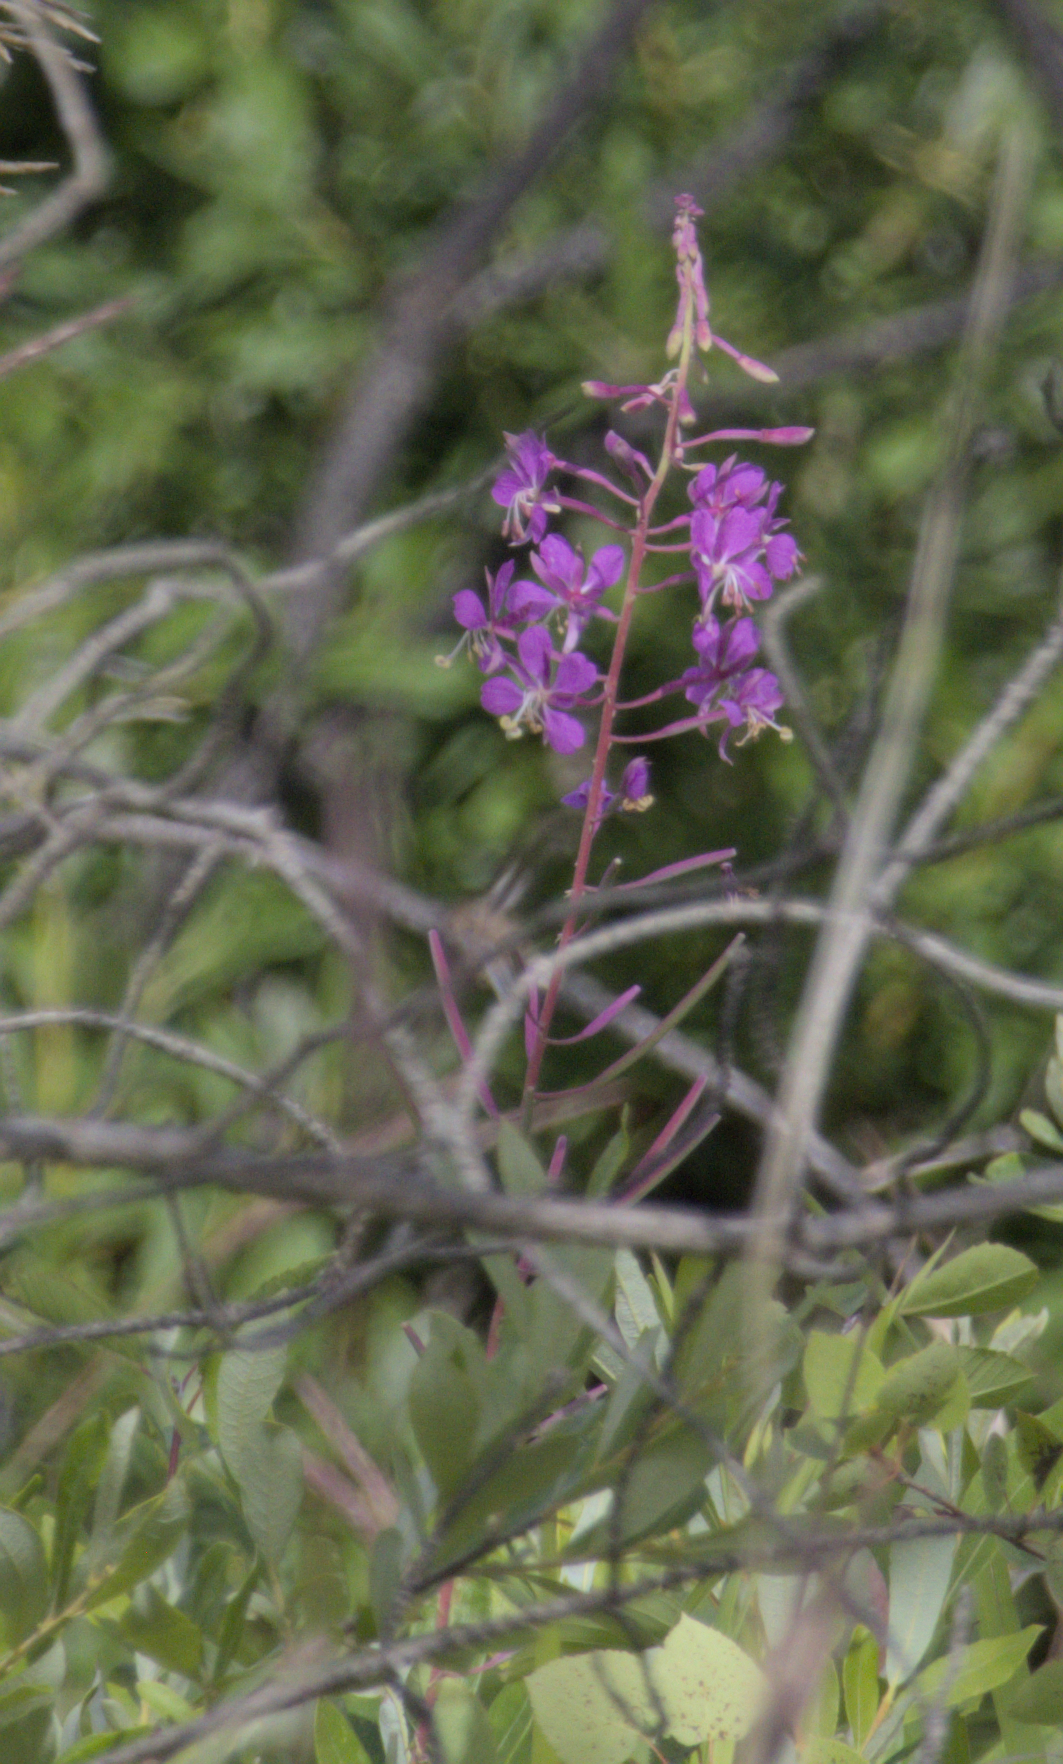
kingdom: Plantae
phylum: Tracheophyta
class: Magnoliopsida
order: Myrtales
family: Onagraceae
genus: Chamaenerion
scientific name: Chamaenerion angustifolium
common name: Fireweed
